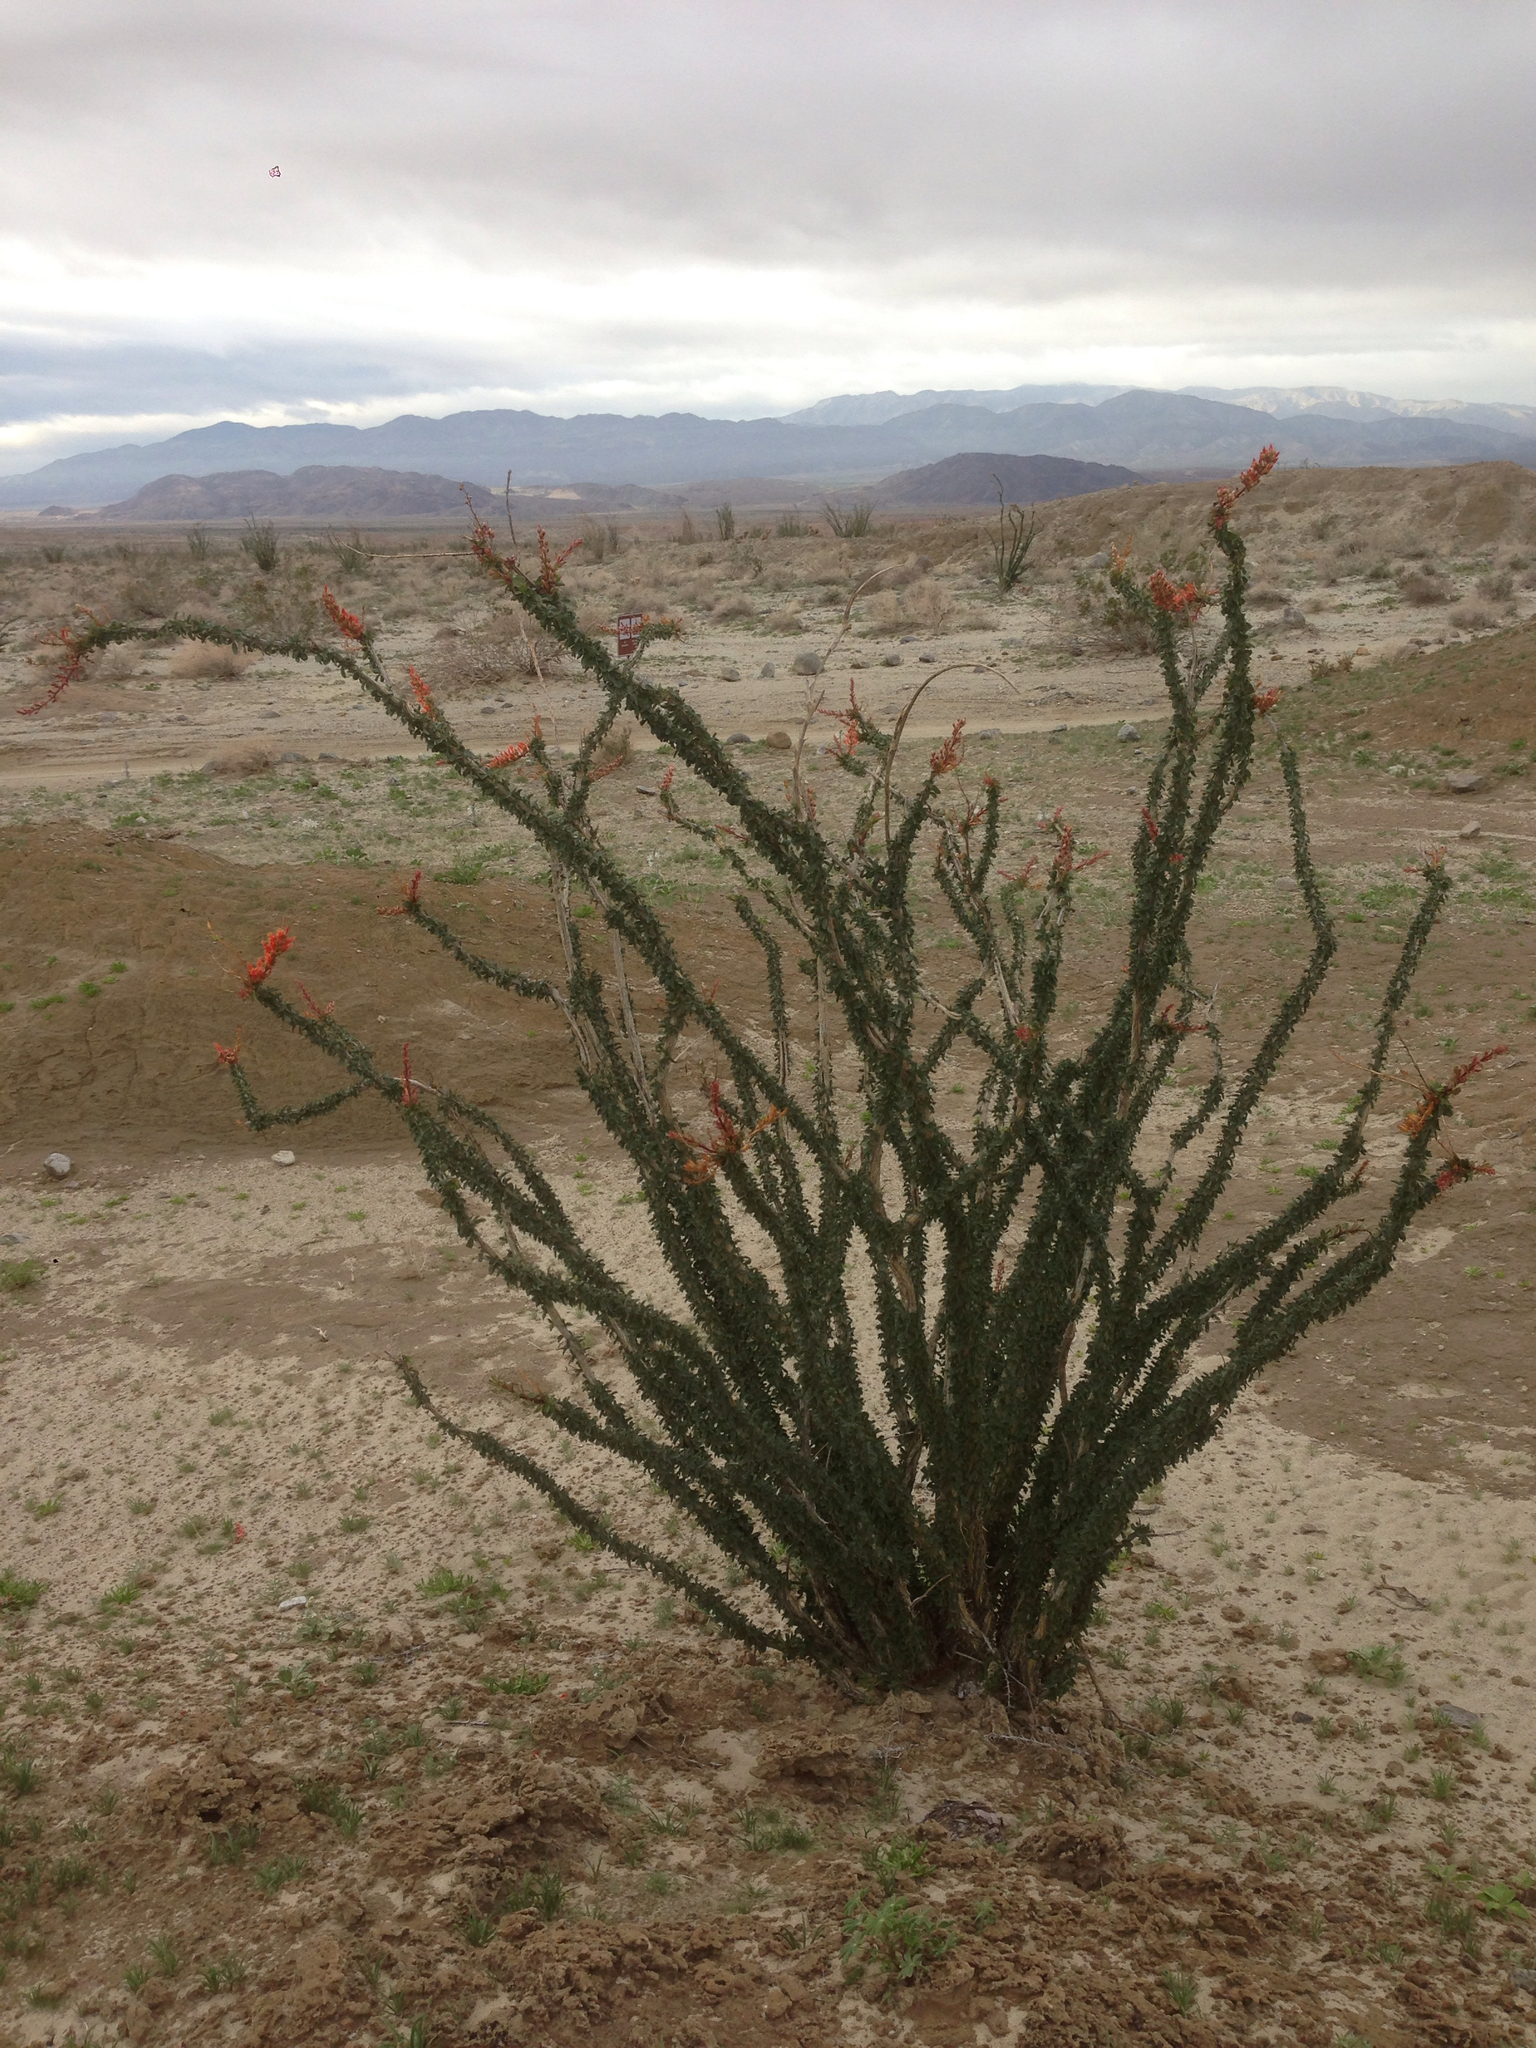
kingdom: Plantae
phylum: Tracheophyta
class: Magnoliopsida
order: Ericales
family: Fouquieriaceae
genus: Fouquieria
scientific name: Fouquieria splendens
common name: Vine-cactus
